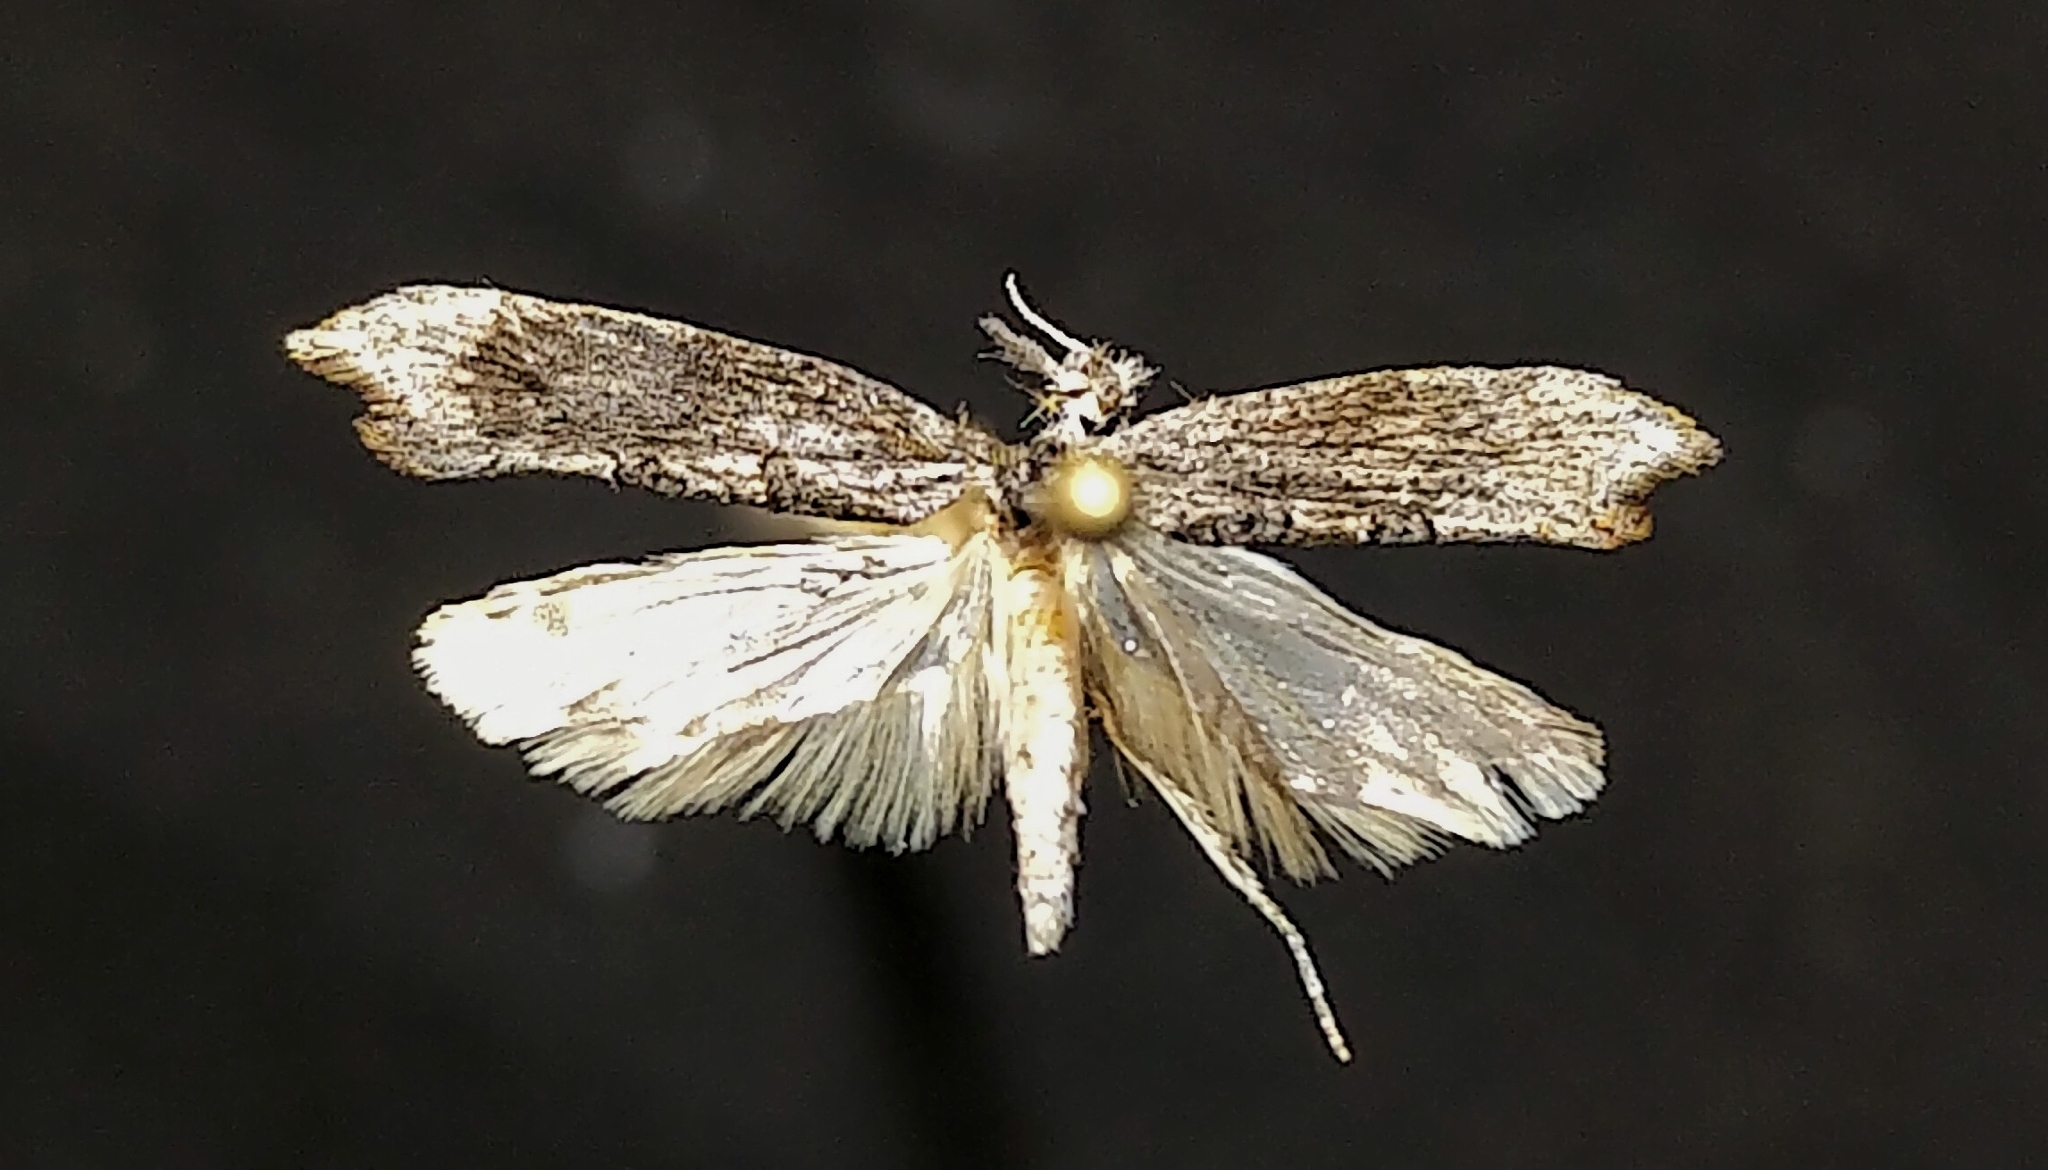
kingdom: Animalia
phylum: Arthropoda
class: Insecta
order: Lepidoptera
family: Ypsolophidae
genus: Ypsolopha
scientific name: Ypsolopha senex
